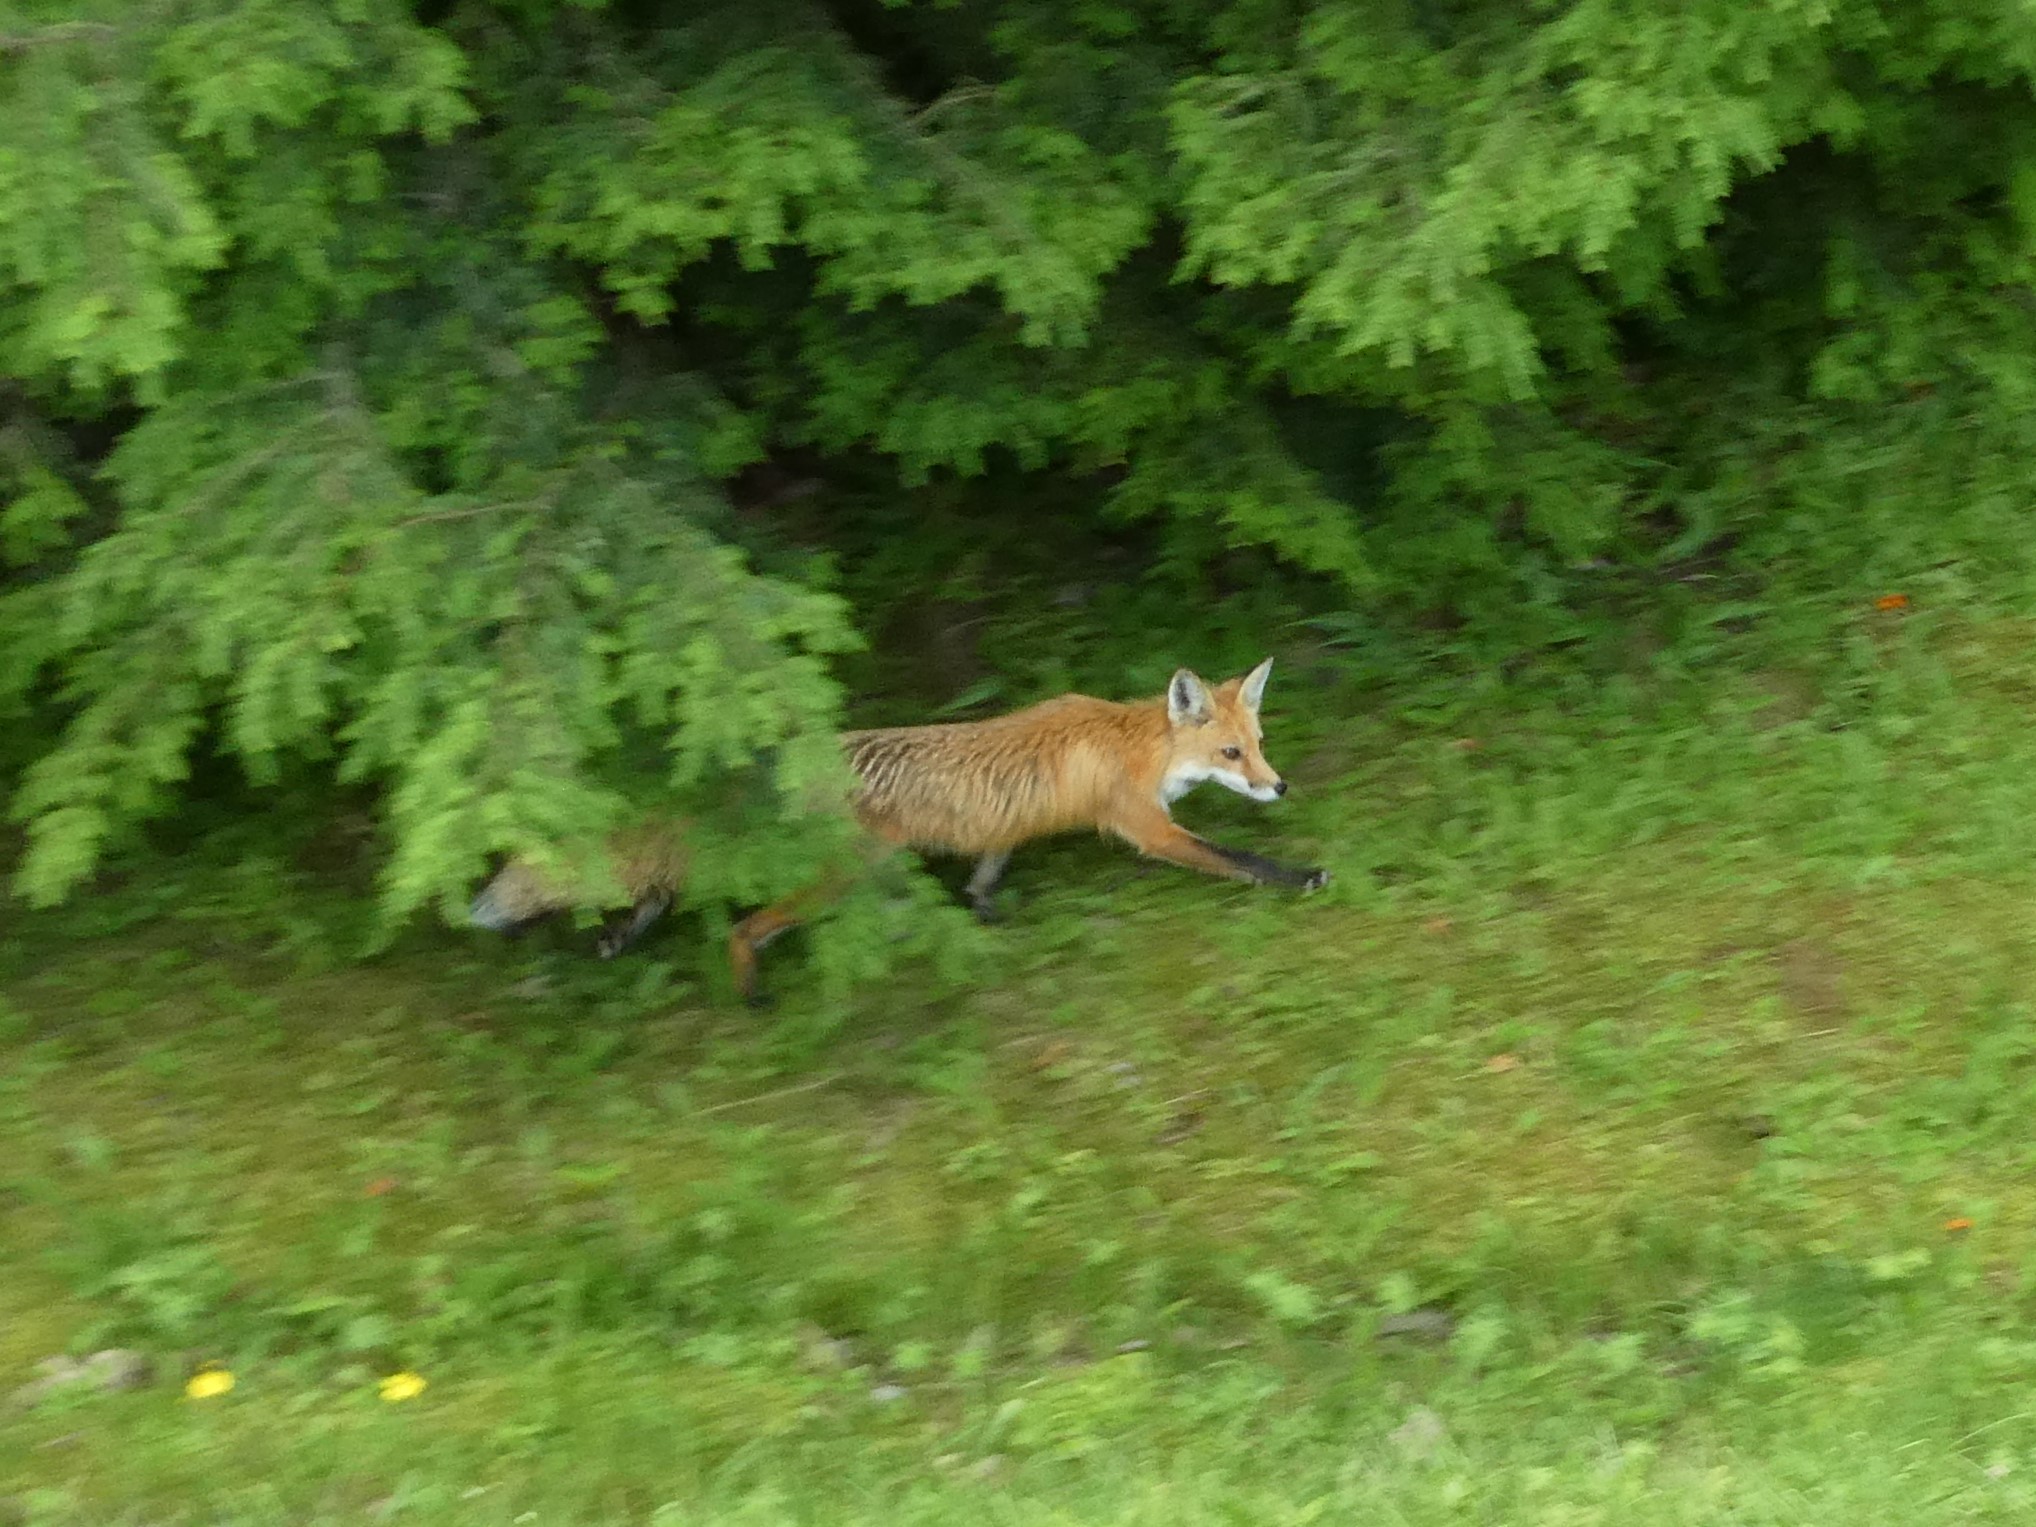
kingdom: Animalia
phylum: Chordata
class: Mammalia
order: Carnivora
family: Canidae
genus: Vulpes
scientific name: Vulpes vulpes
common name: Red fox
